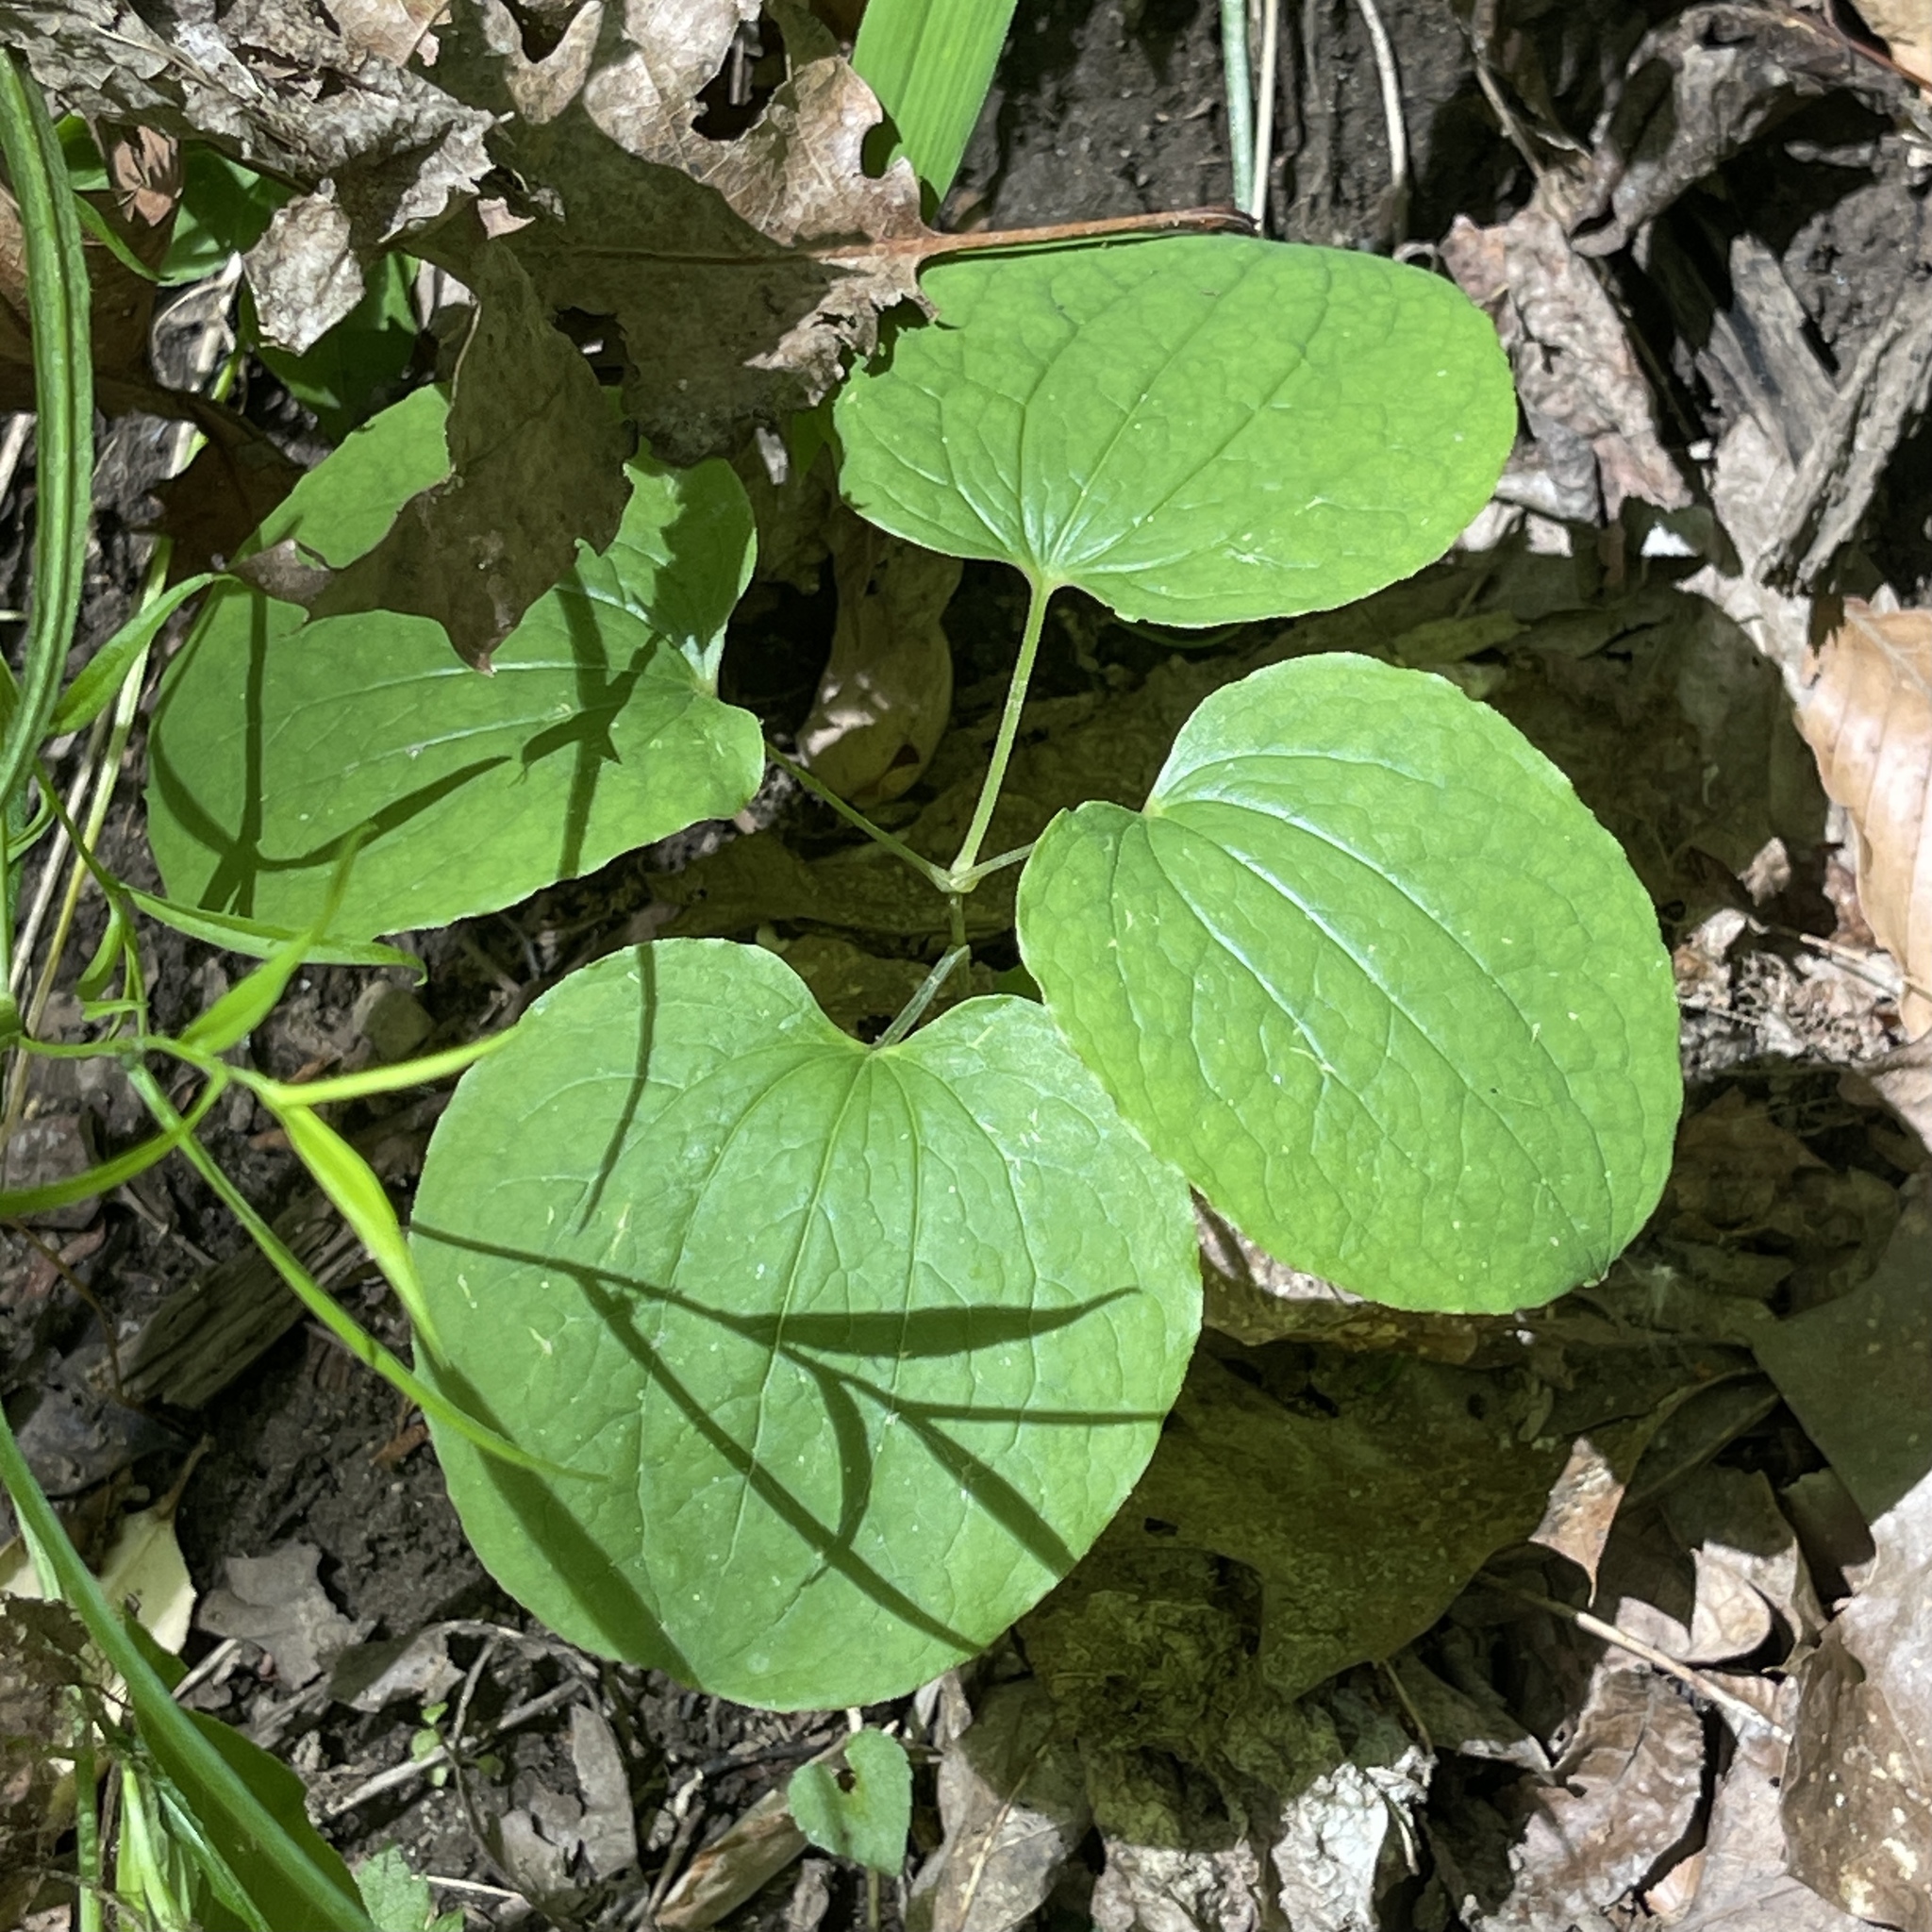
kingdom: Plantae
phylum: Tracheophyta
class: Liliopsida
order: Liliales
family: Smilacaceae
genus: Smilax
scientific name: Smilax ecirrhata
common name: Upright carrionflower
